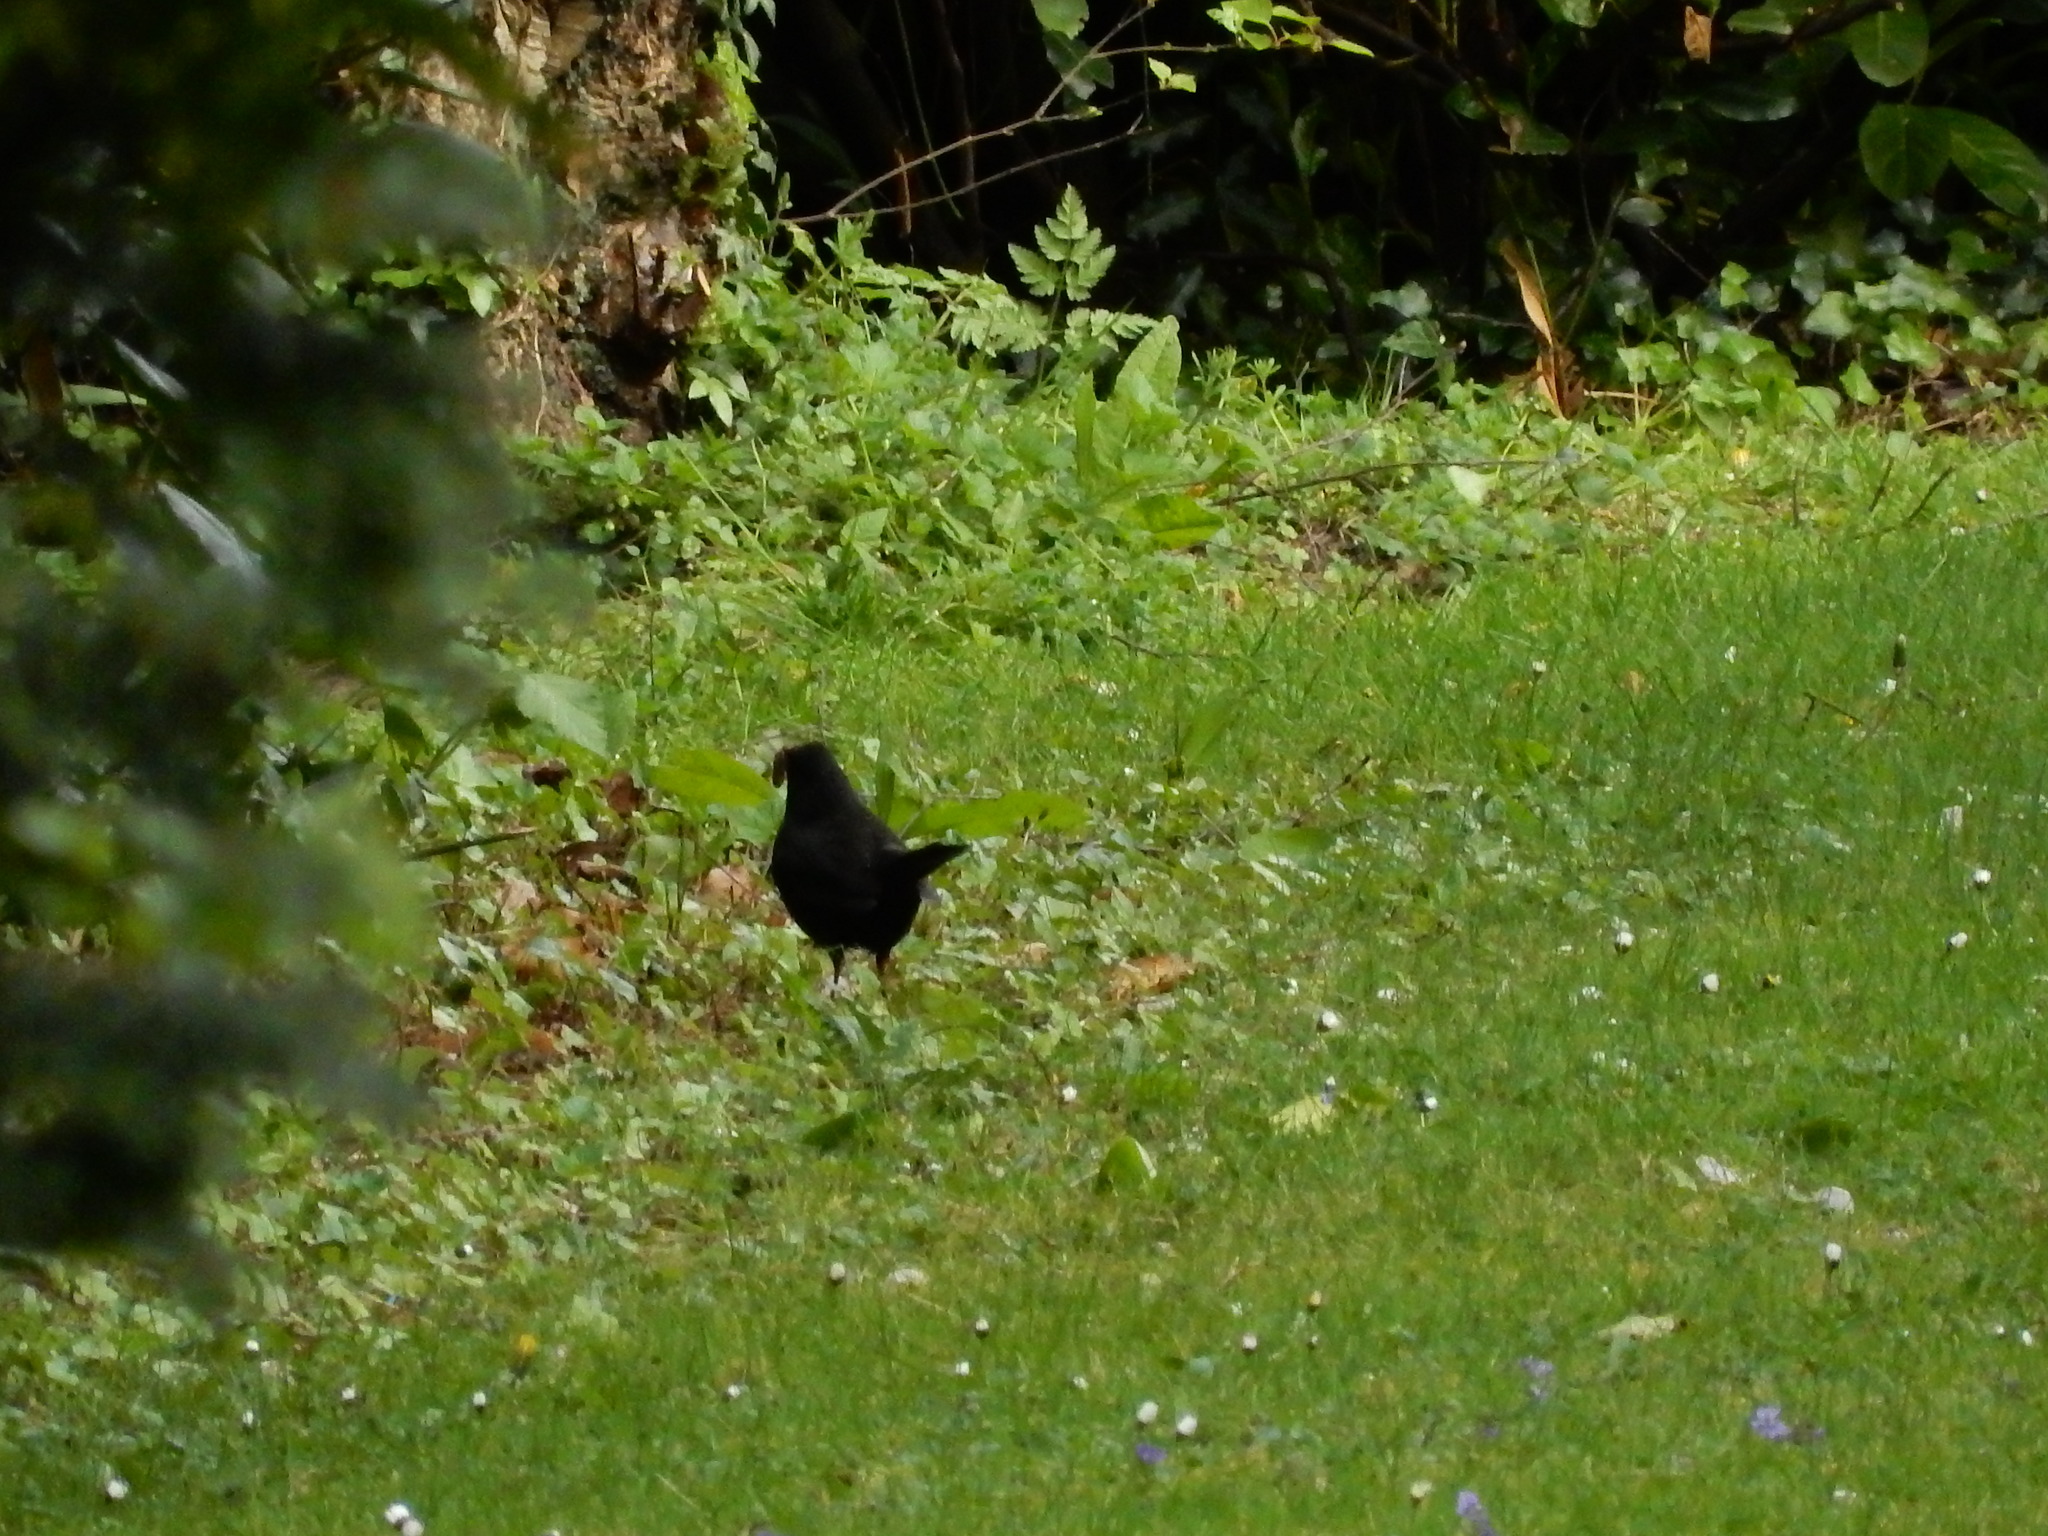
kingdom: Animalia
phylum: Chordata
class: Aves
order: Passeriformes
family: Turdidae
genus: Turdus
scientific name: Turdus merula
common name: Common blackbird
